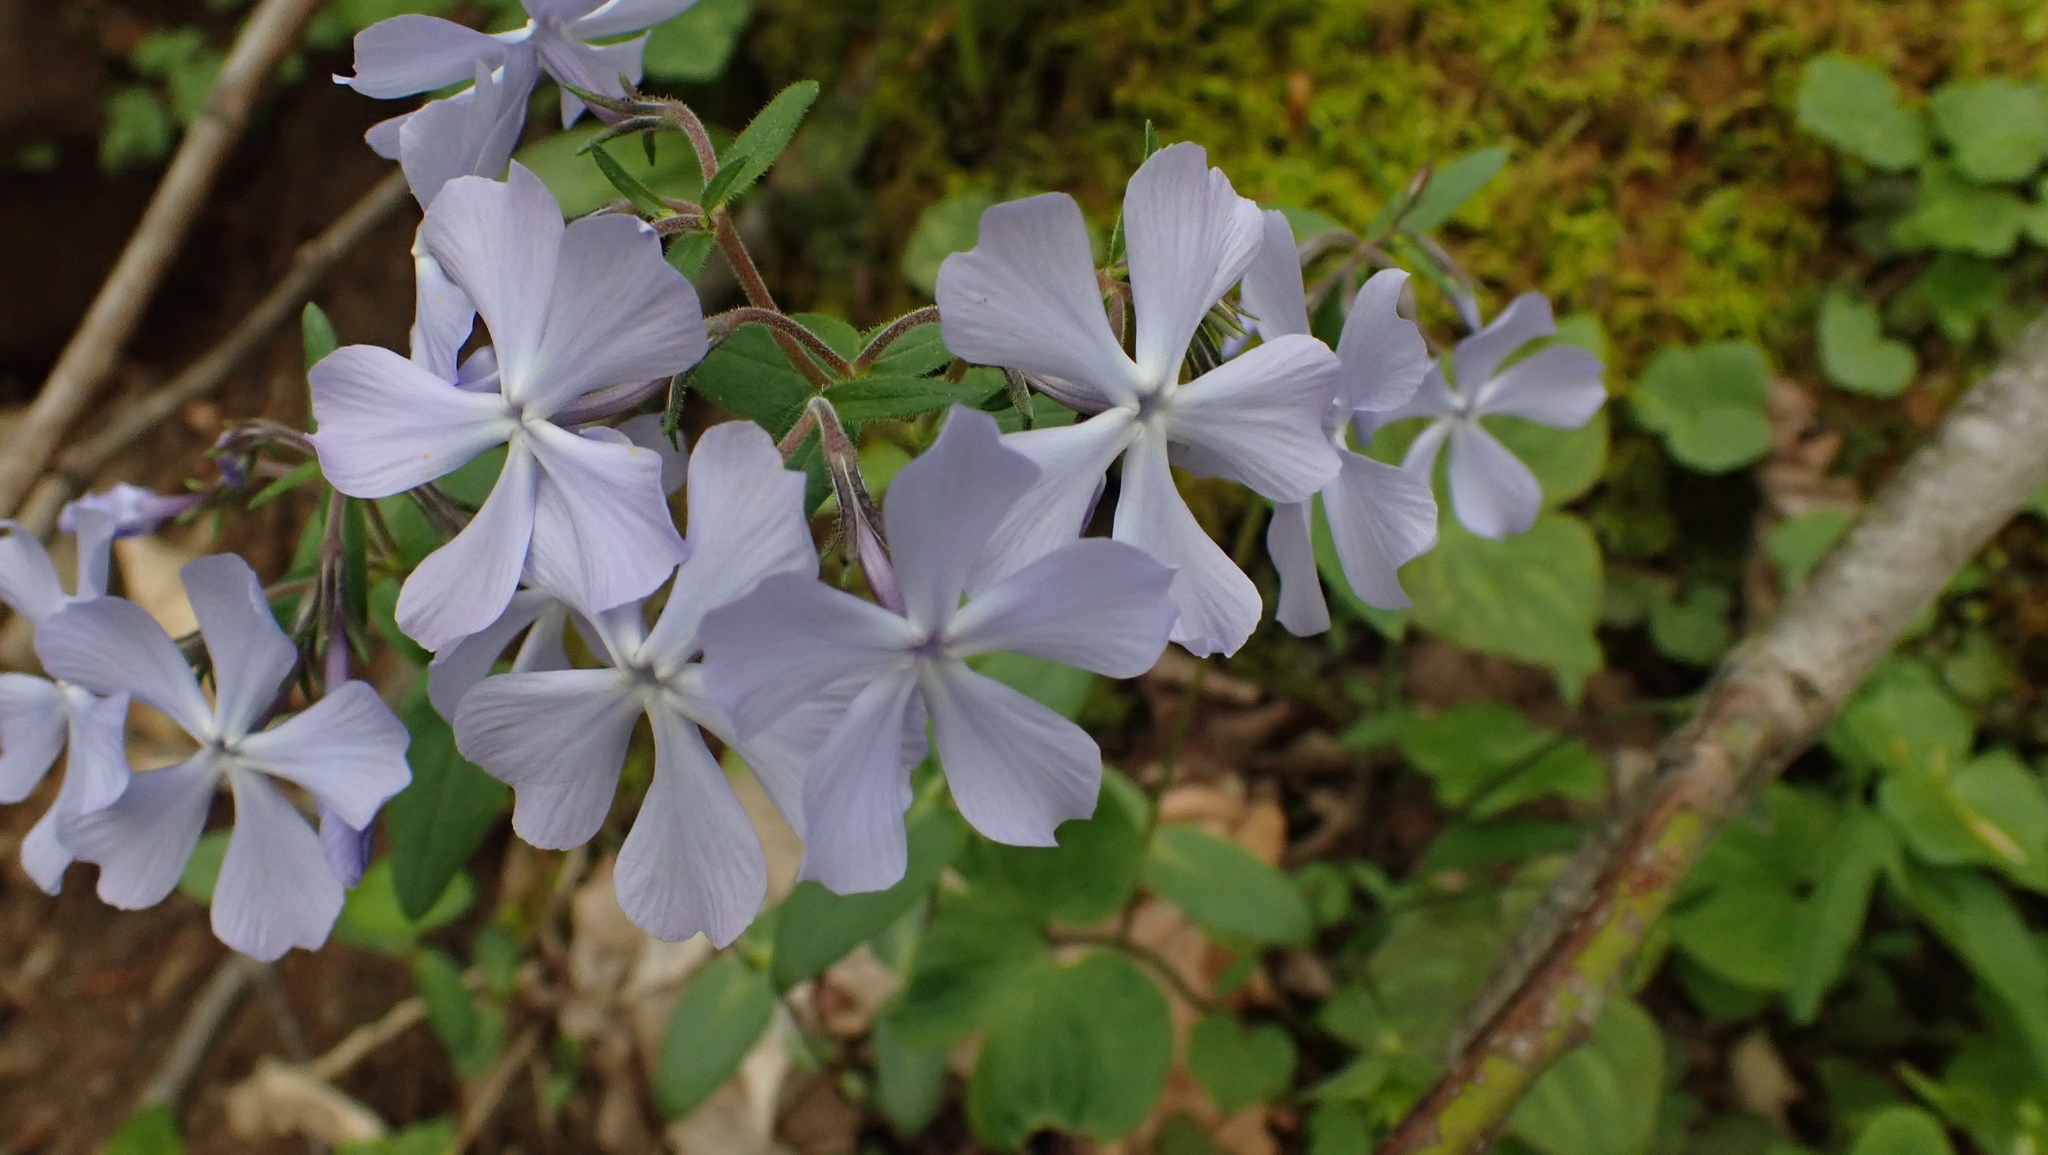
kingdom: Plantae
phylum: Tracheophyta
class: Magnoliopsida
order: Ericales
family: Polemoniaceae
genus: Phlox
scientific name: Phlox divaricata
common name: Blue phlox
